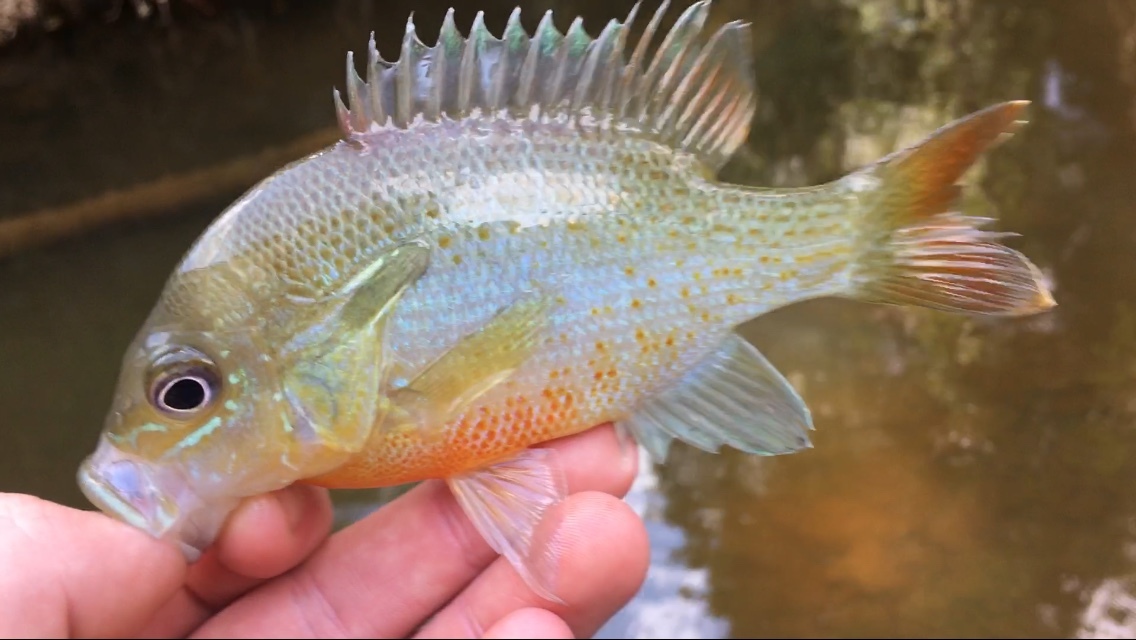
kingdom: Animalia
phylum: Chordata
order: Perciformes
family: Centrarchidae
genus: Lepomis
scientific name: Lepomis auritus
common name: Redbreast sunfish
